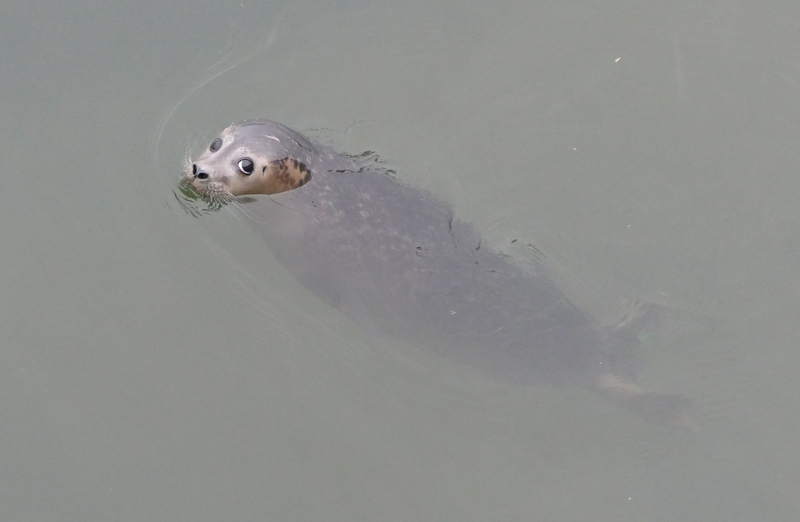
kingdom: Animalia
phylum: Chordata
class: Mammalia
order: Carnivora
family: Phocidae
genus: Phoca
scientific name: Phoca vitulina
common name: Harbor seal
